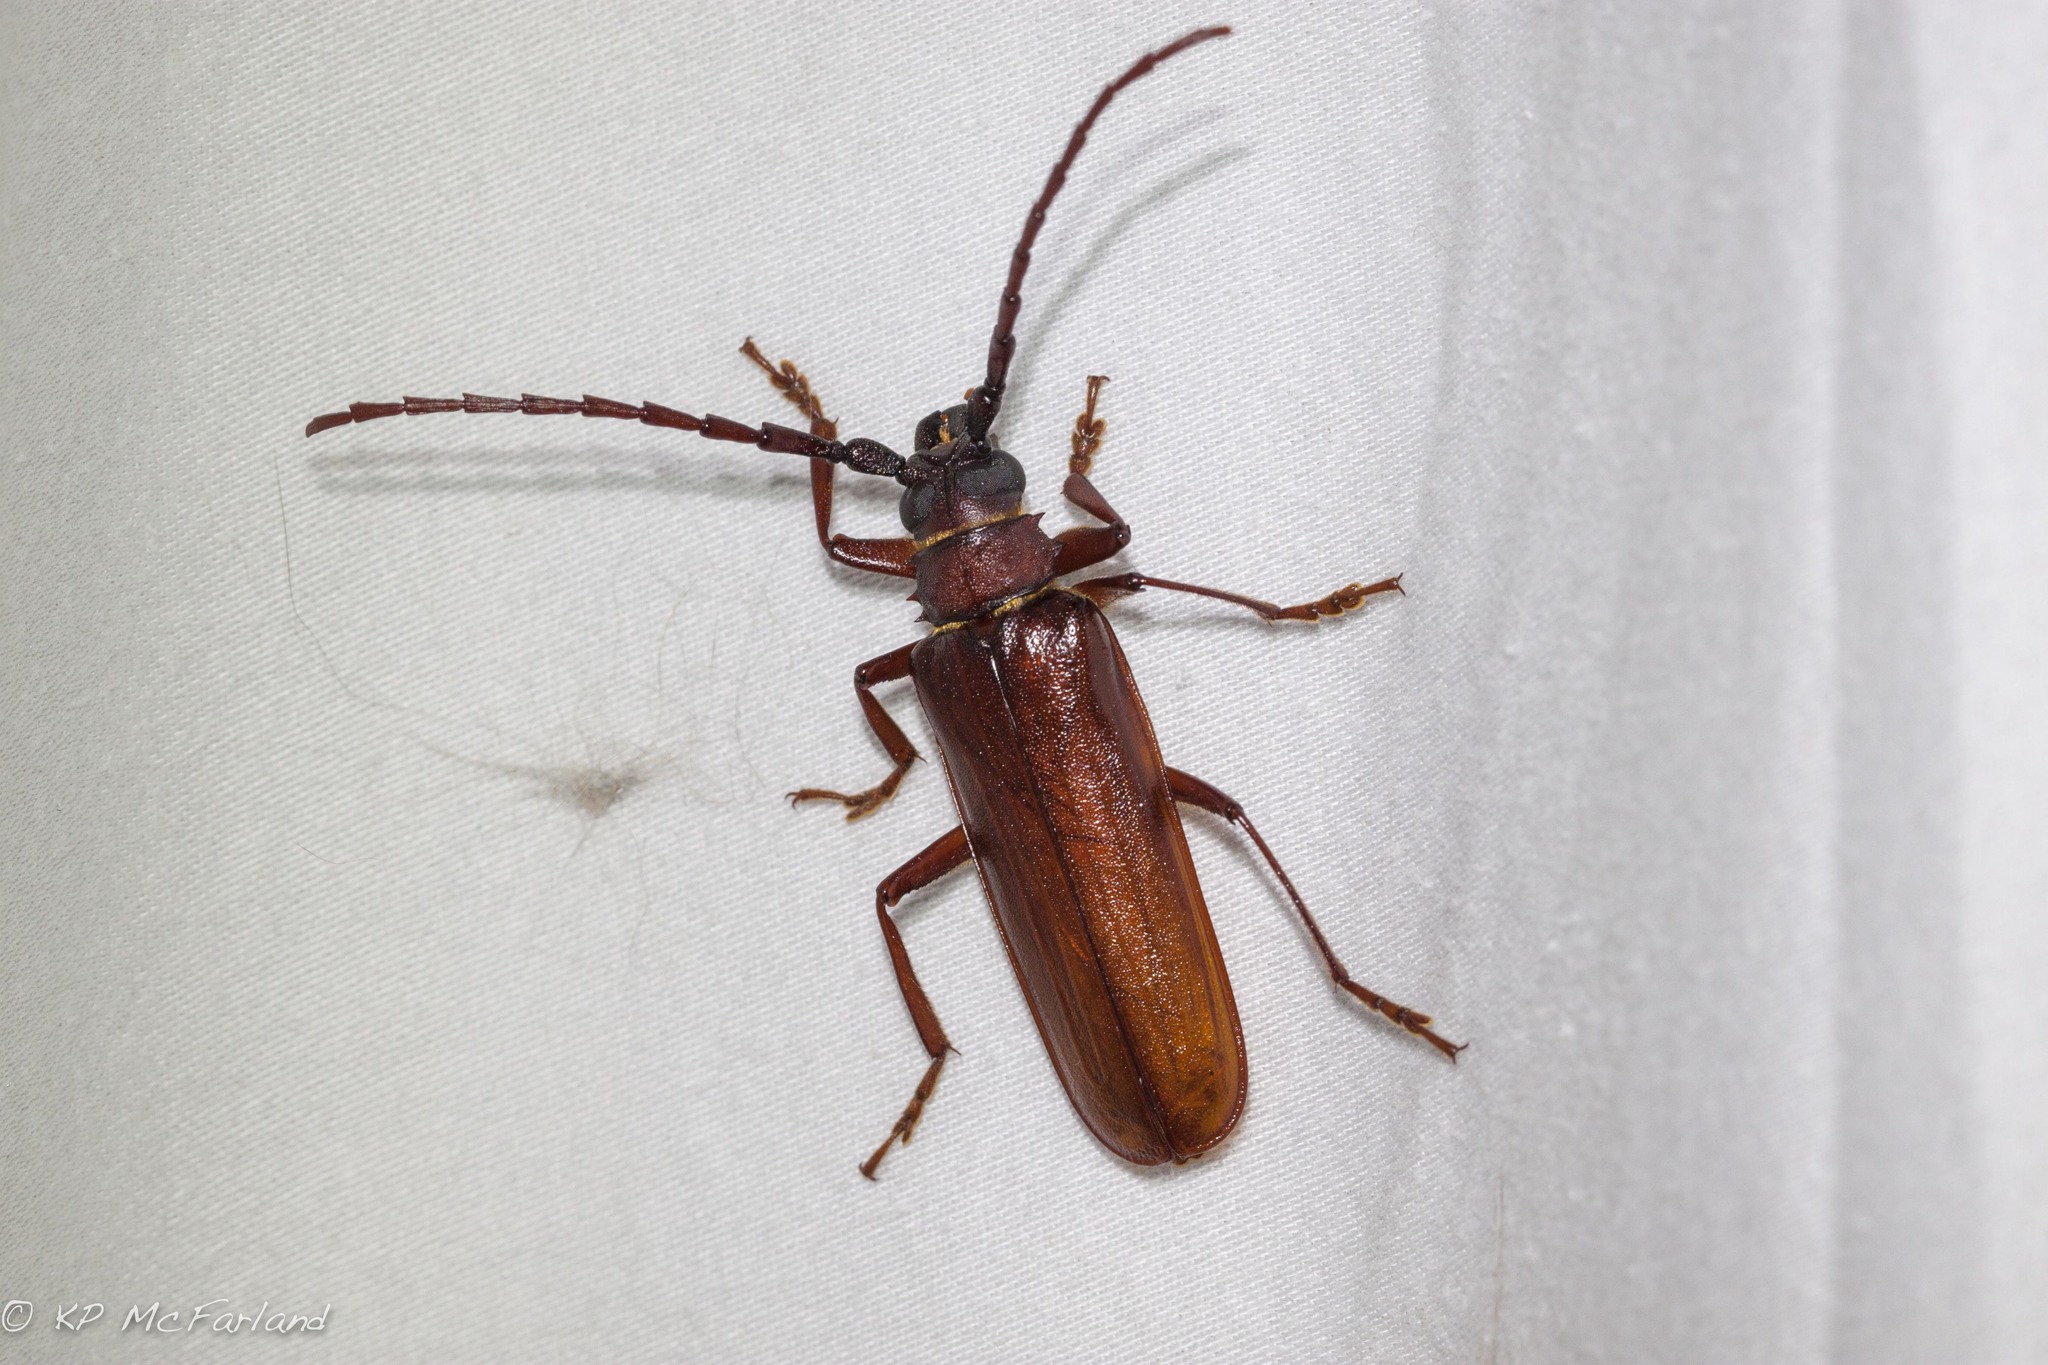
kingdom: Animalia
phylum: Arthropoda
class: Insecta
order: Coleoptera
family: Cerambycidae
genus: Orthosoma
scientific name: Orthosoma brunneum
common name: Brown prionid beetle
